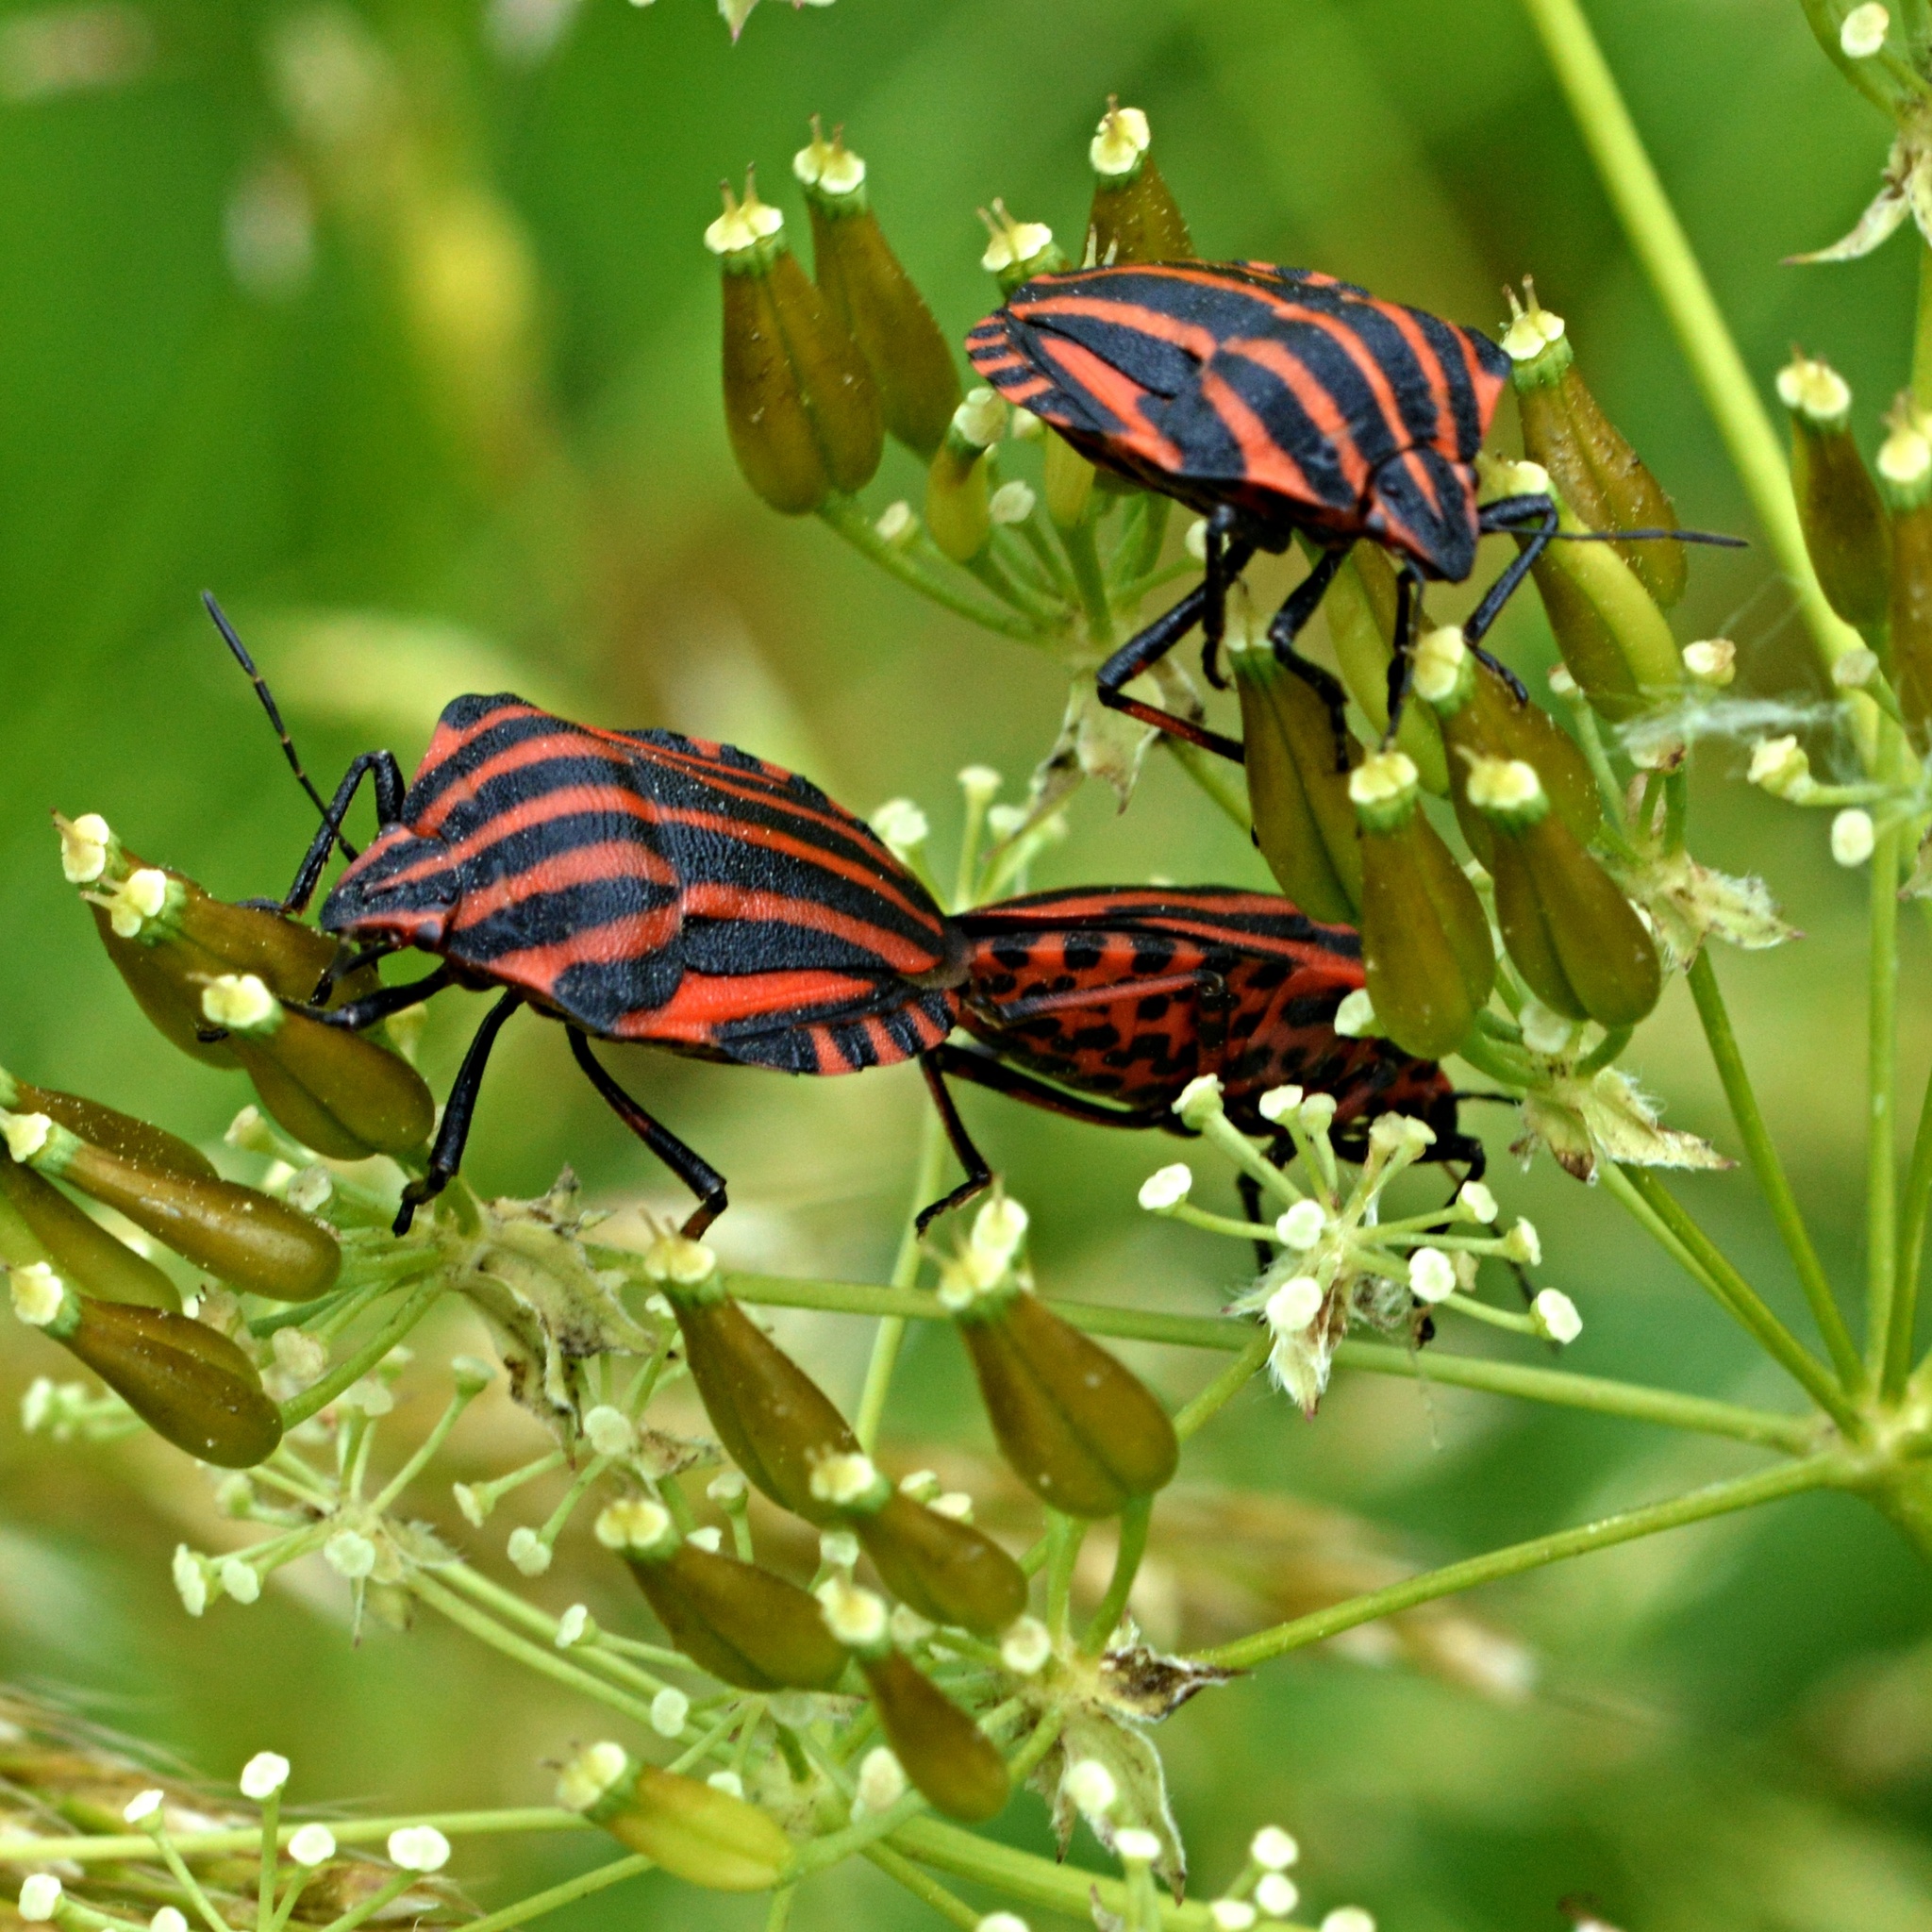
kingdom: Animalia
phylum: Arthropoda
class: Insecta
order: Hemiptera
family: Pentatomidae
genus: Graphosoma
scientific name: Graphosoma italicum
